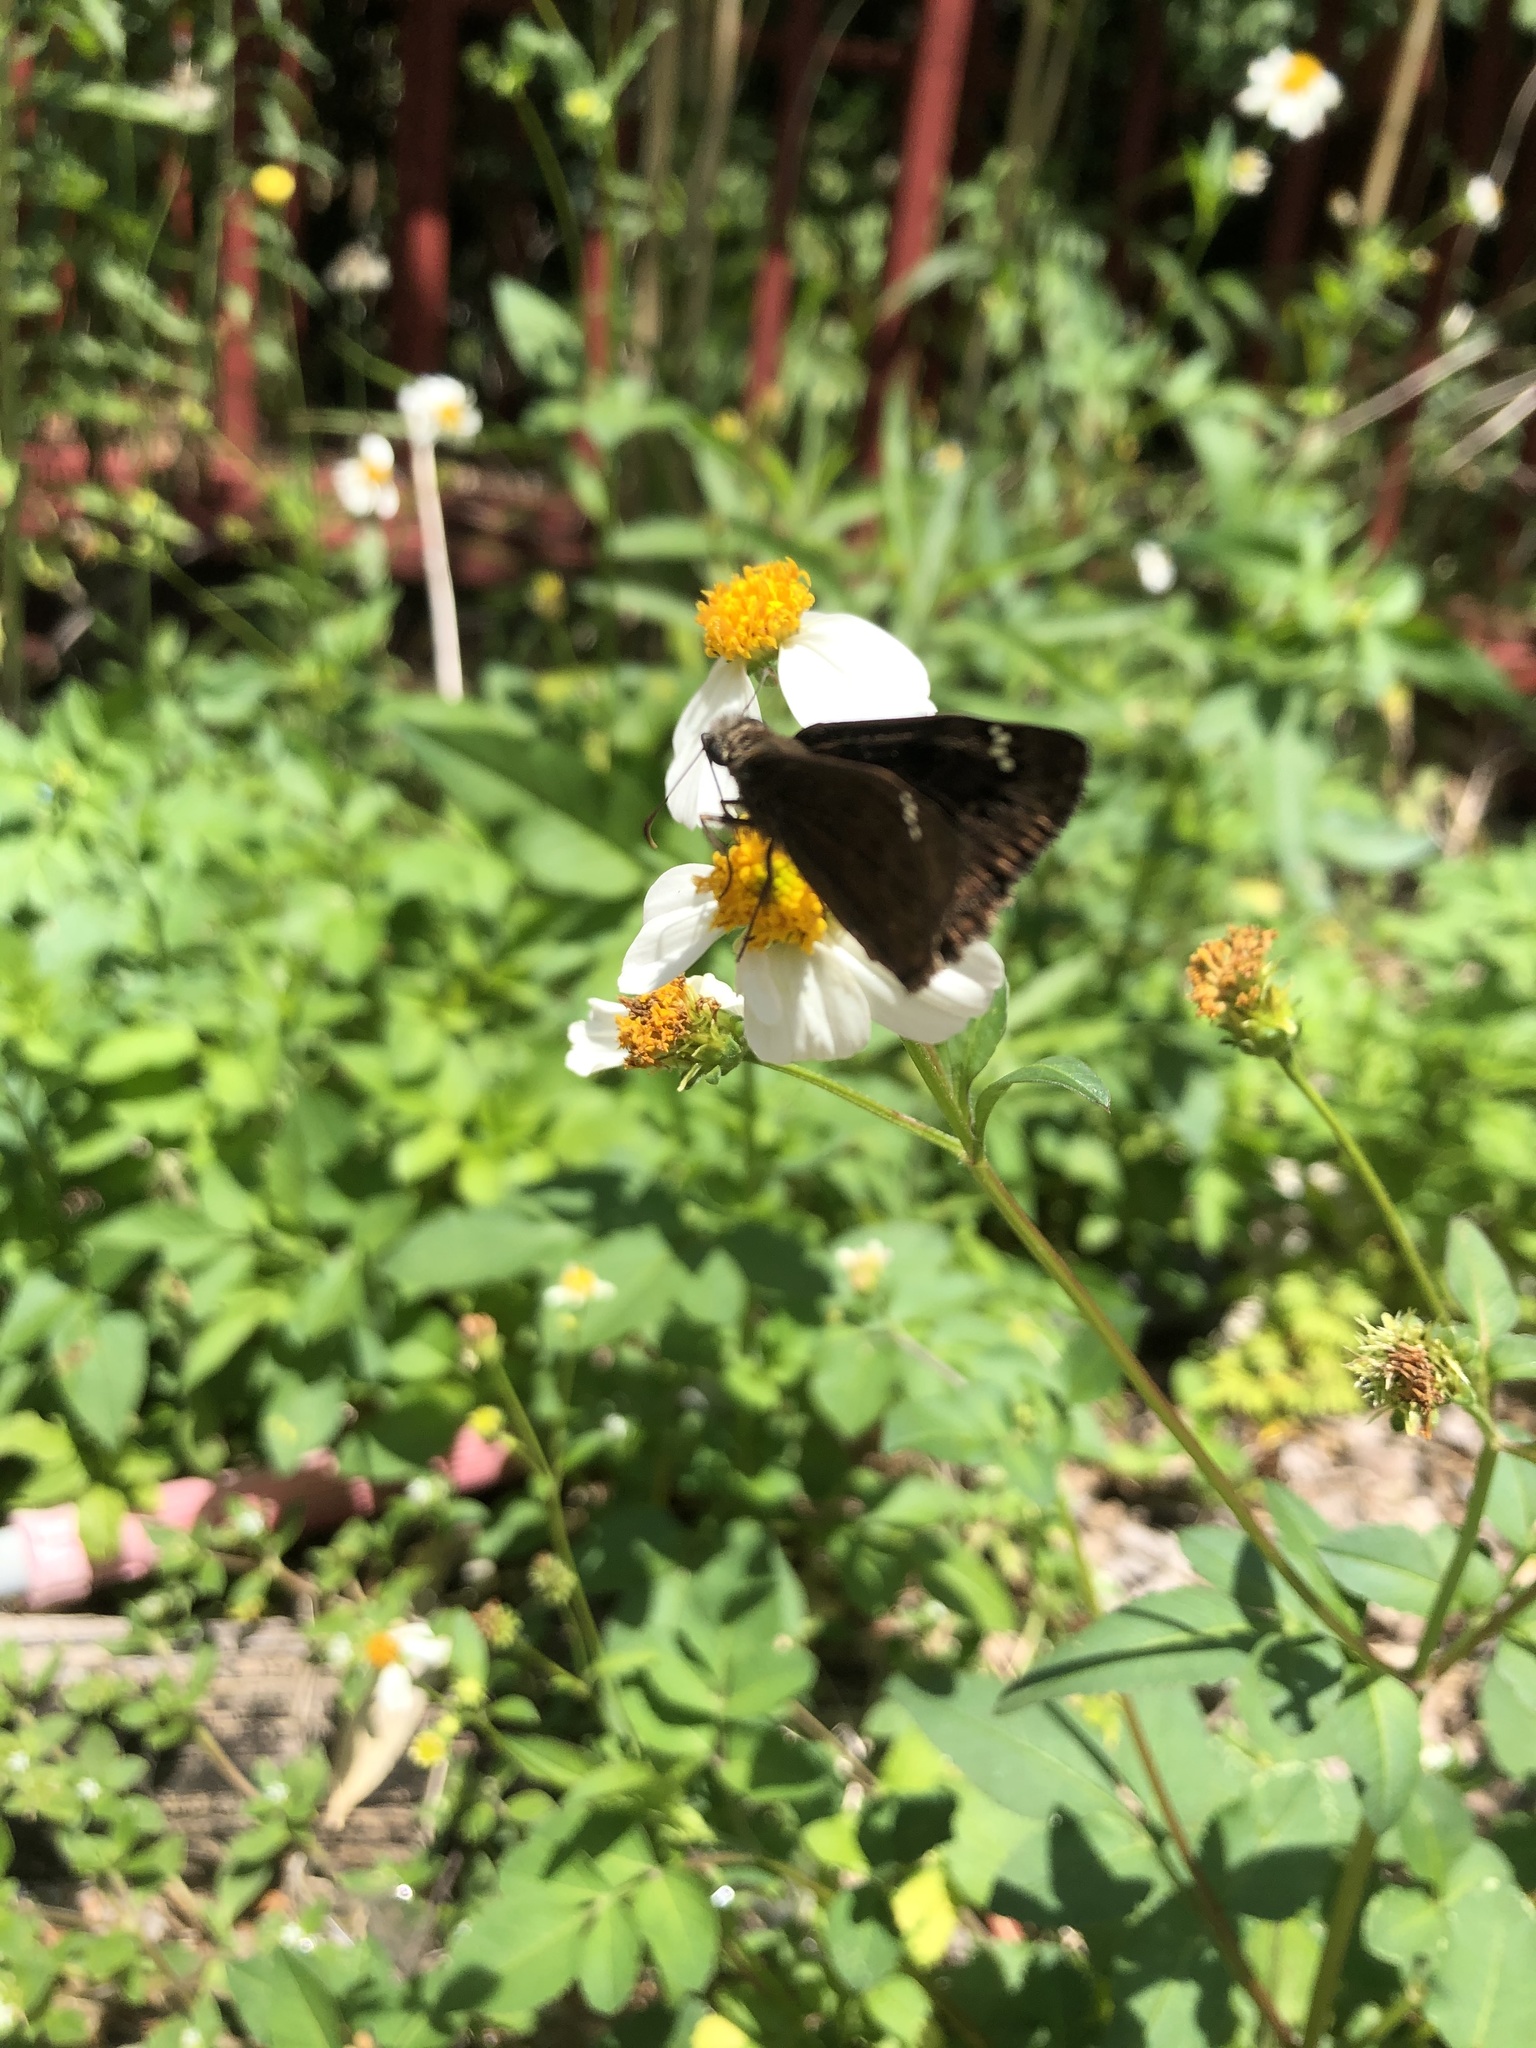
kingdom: Animalia
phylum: Arthropoda
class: Insecta
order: Lepidoptera
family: Hesperiidae
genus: Erynnis
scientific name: Erynnis horatius
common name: Horace's duskywing
